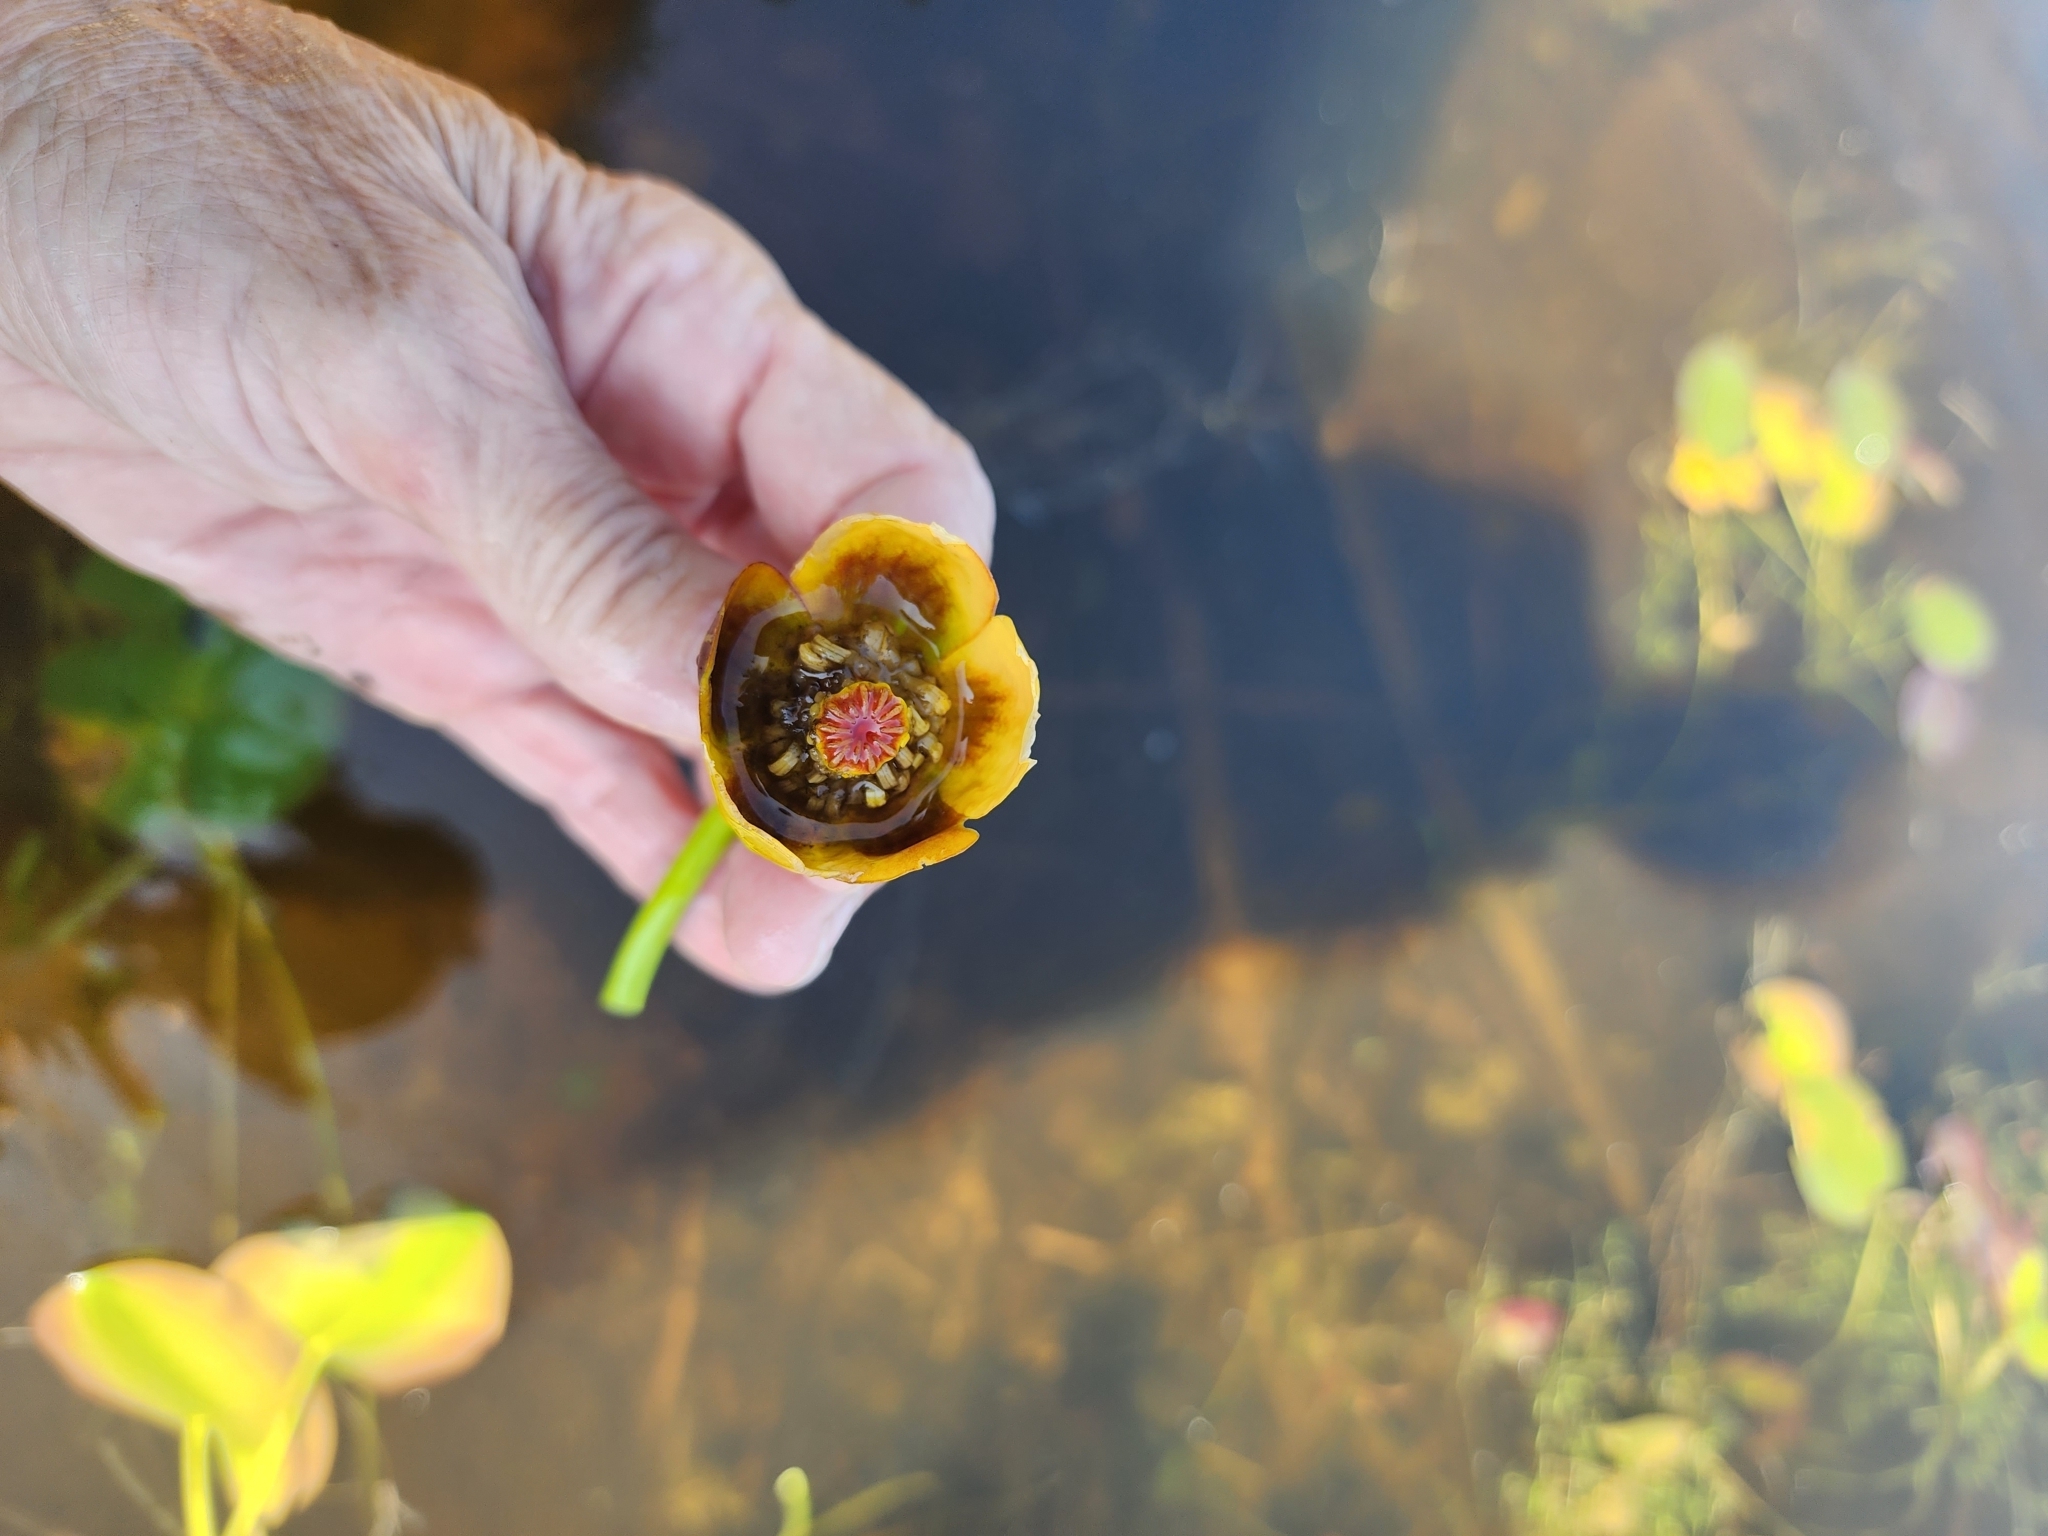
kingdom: Plantae
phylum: Tracheophyta
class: Magnoliopsida
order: Nymphaeales
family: Nymphaeaceae
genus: Nuphar
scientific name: Nuphar rubrodisca
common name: Yellow pond-lily
